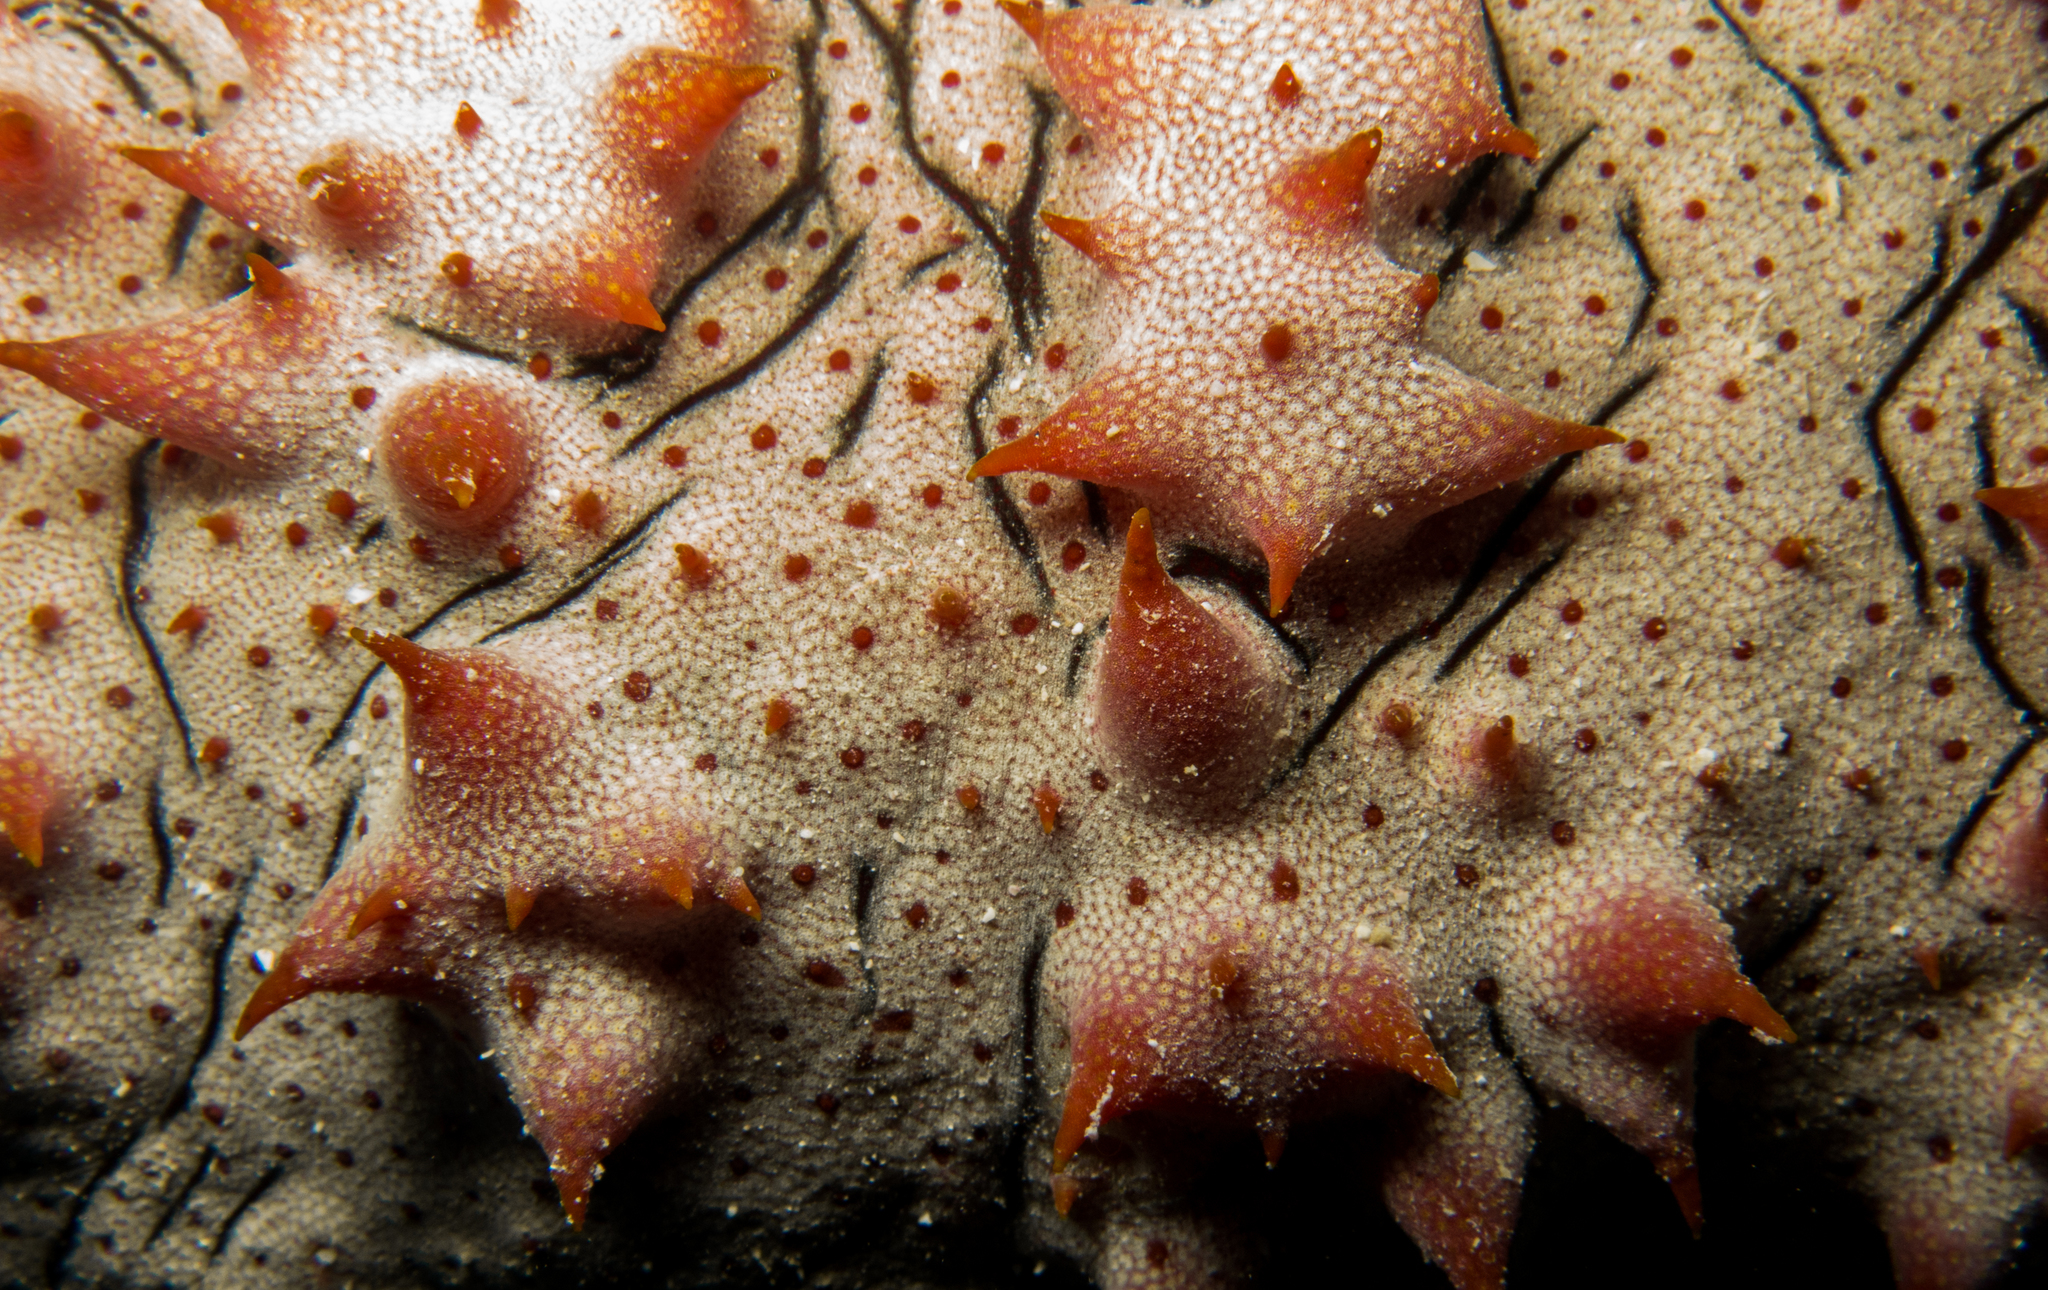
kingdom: Animalia
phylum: Echinodermata
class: Holothuroidea
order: Synallactida
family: Stichopodidae
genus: Thelenota
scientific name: Thelenota ananas
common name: Prickly redfish
